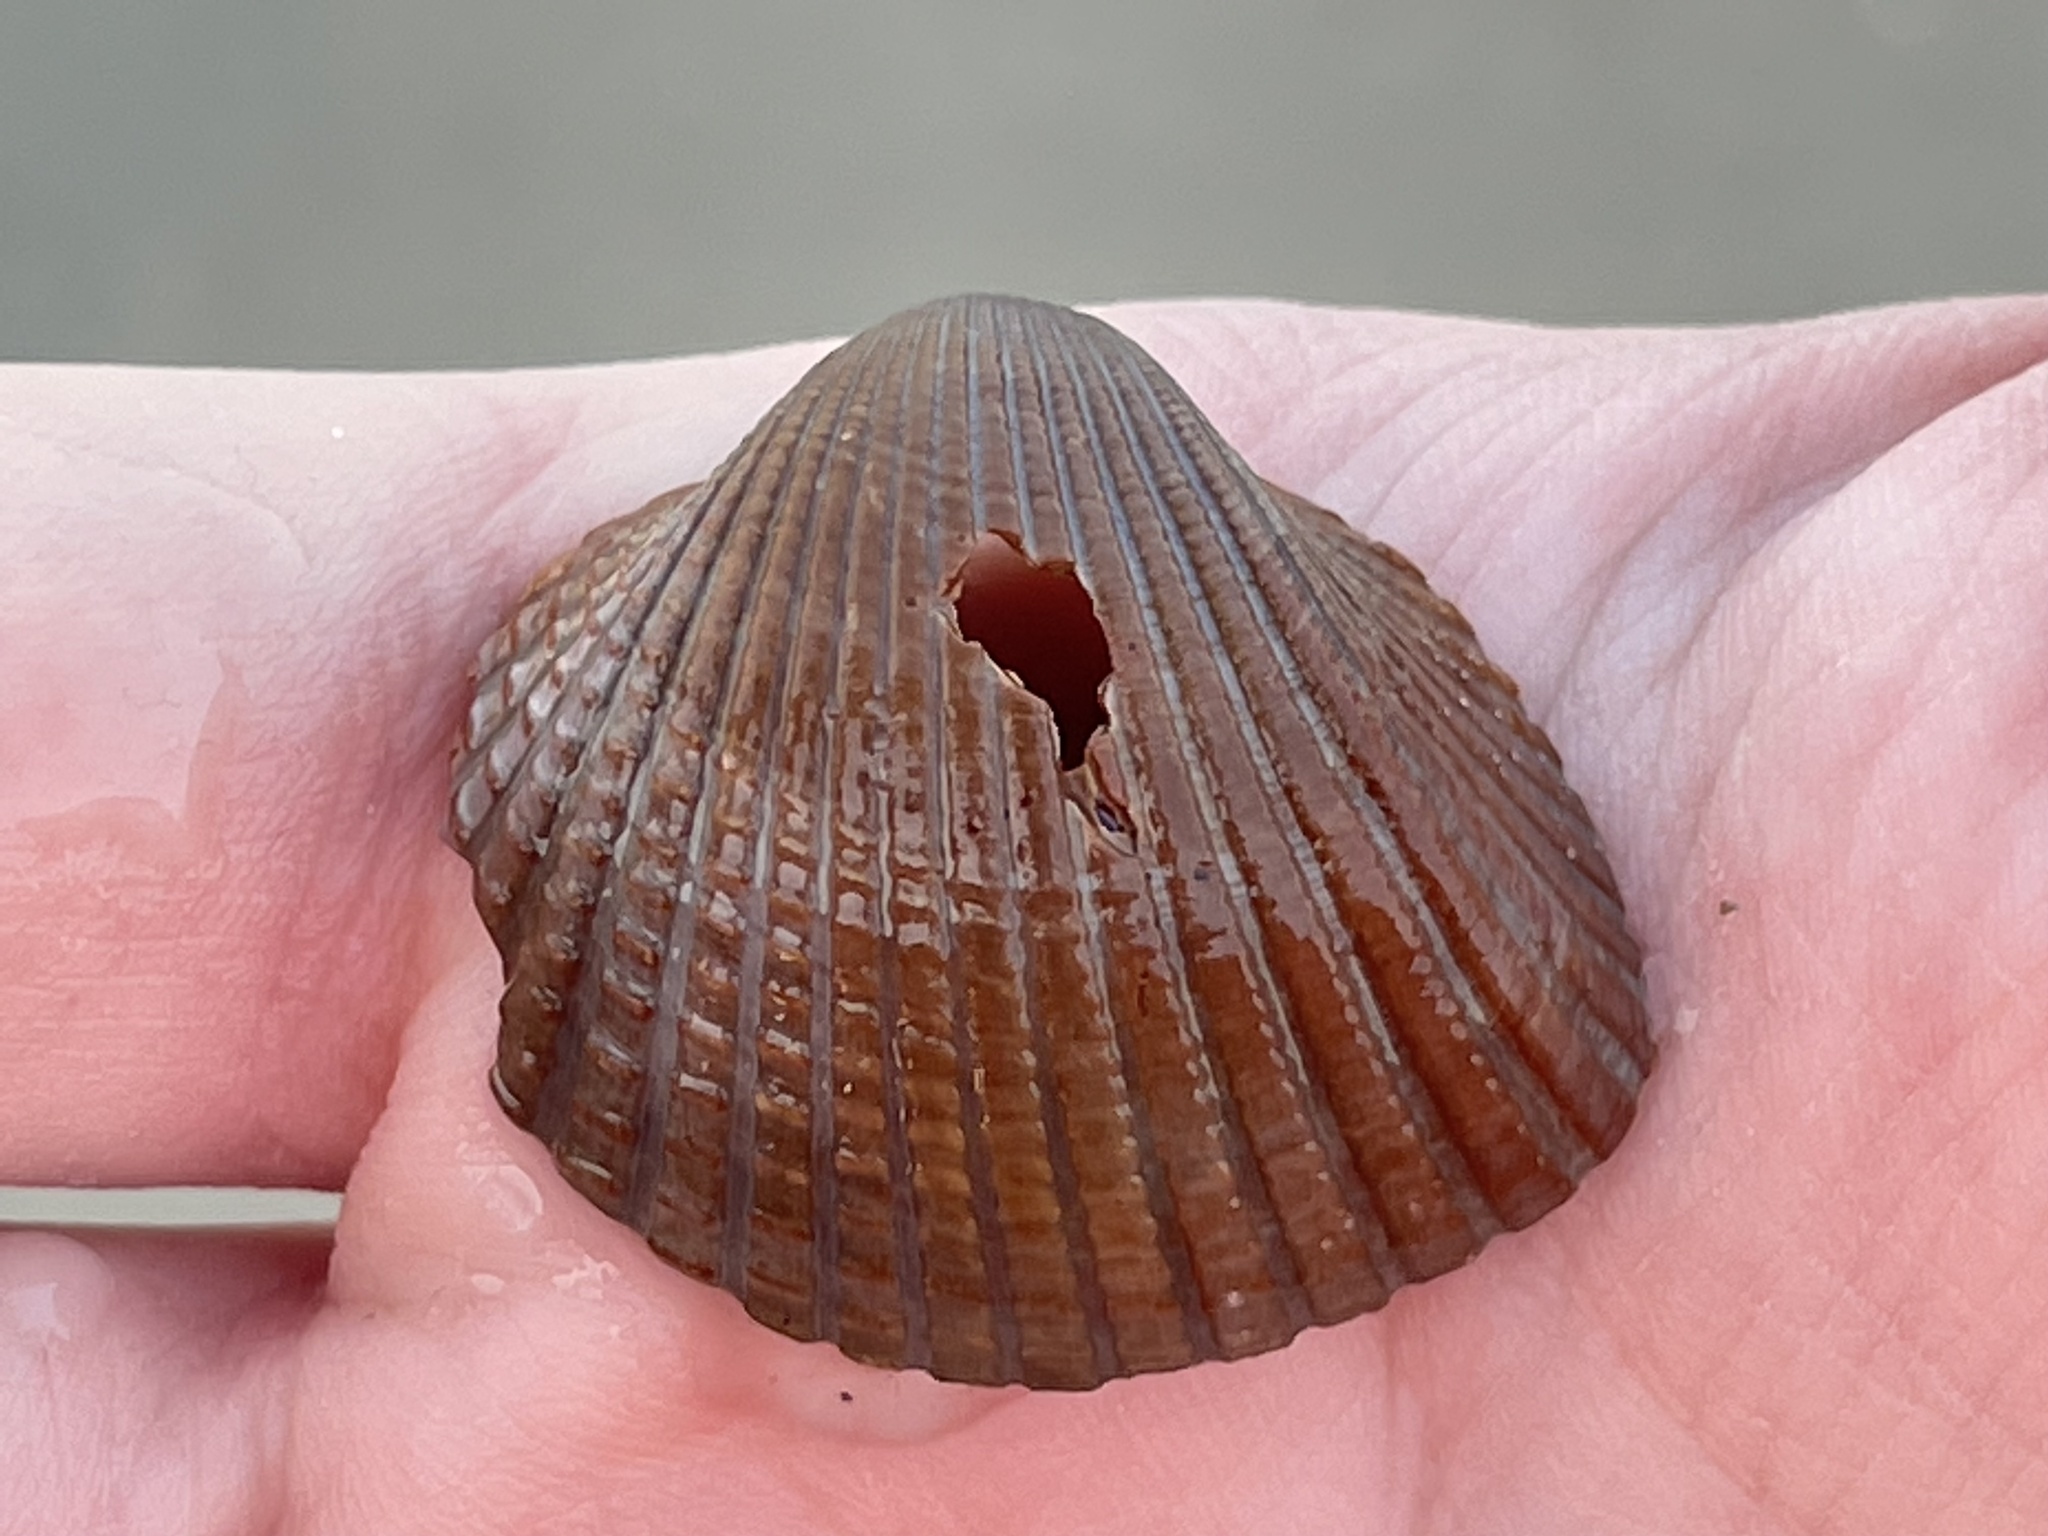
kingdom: Animalia
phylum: Mollusca
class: Bivalvia
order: Arcida
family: Arcidae
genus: Anadara
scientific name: Anadara brasiliana
